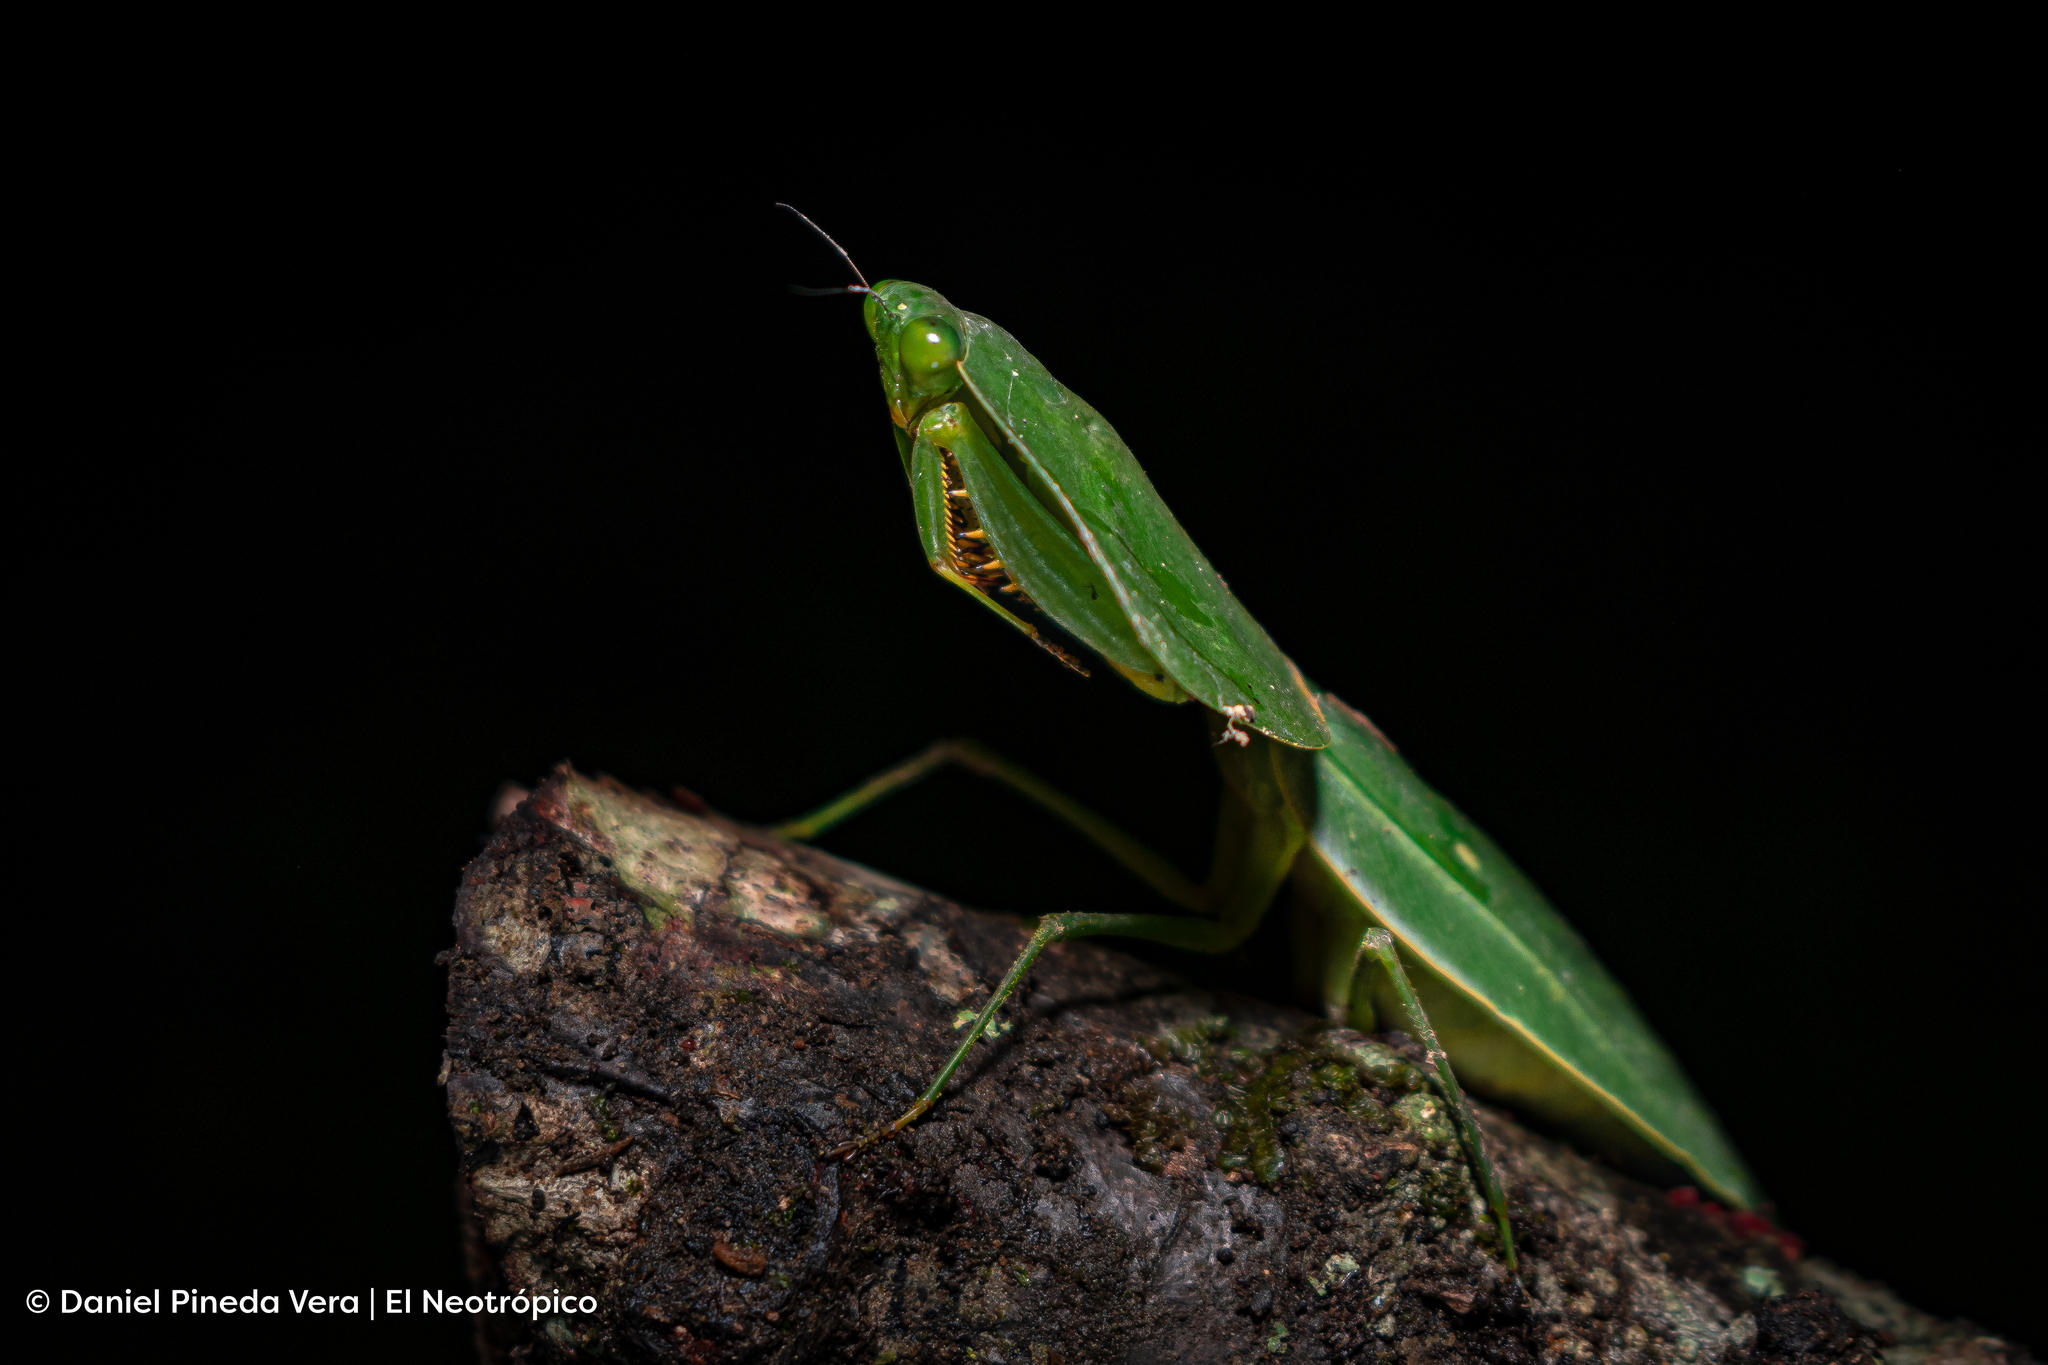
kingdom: Animalia
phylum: Arthropoda
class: Insecta
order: Mantodea
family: Mantidae
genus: Choeradodis
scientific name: Choeradodis rhombicollis
